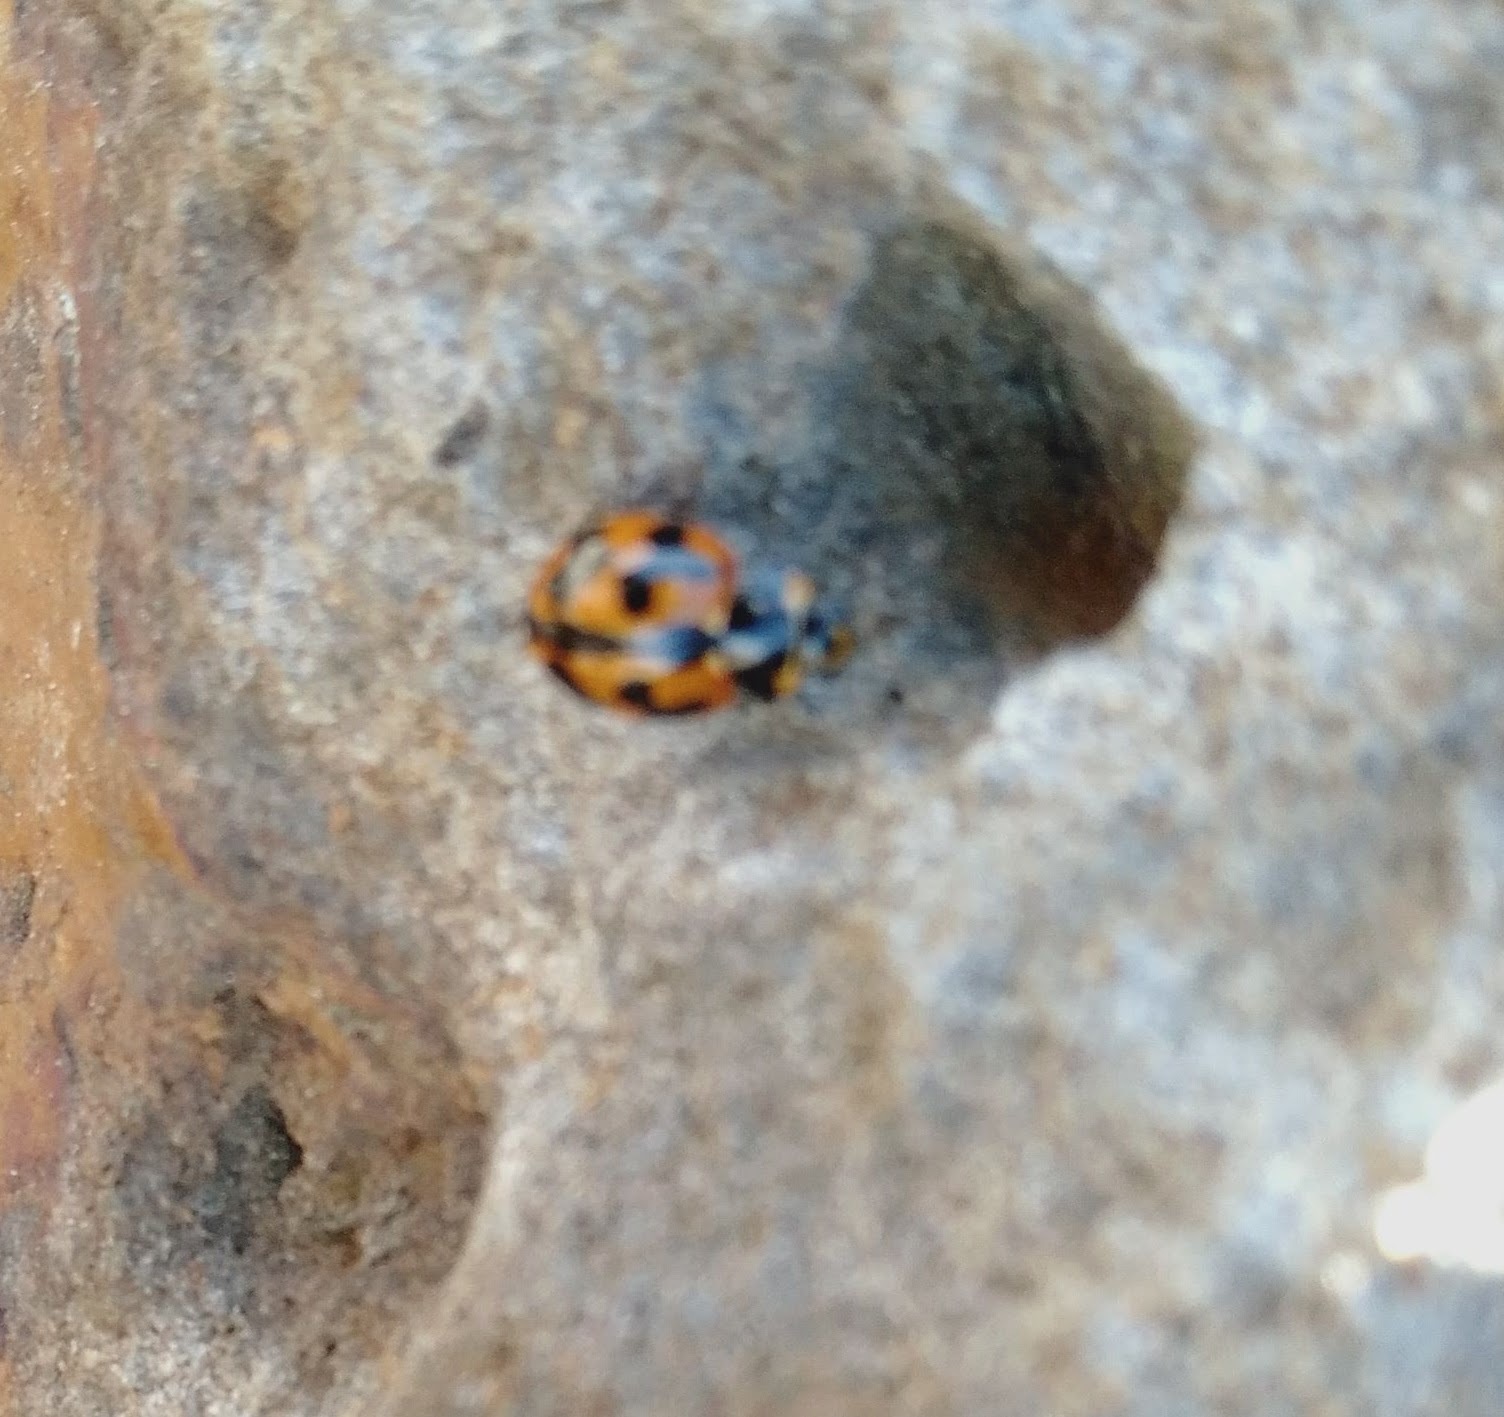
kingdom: Animalia
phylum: Arthropoda
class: Insecta
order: Coleoptera
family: Coccinellidae
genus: Coccinella
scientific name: Coccinella transversalis
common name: Transverse lady beetle
